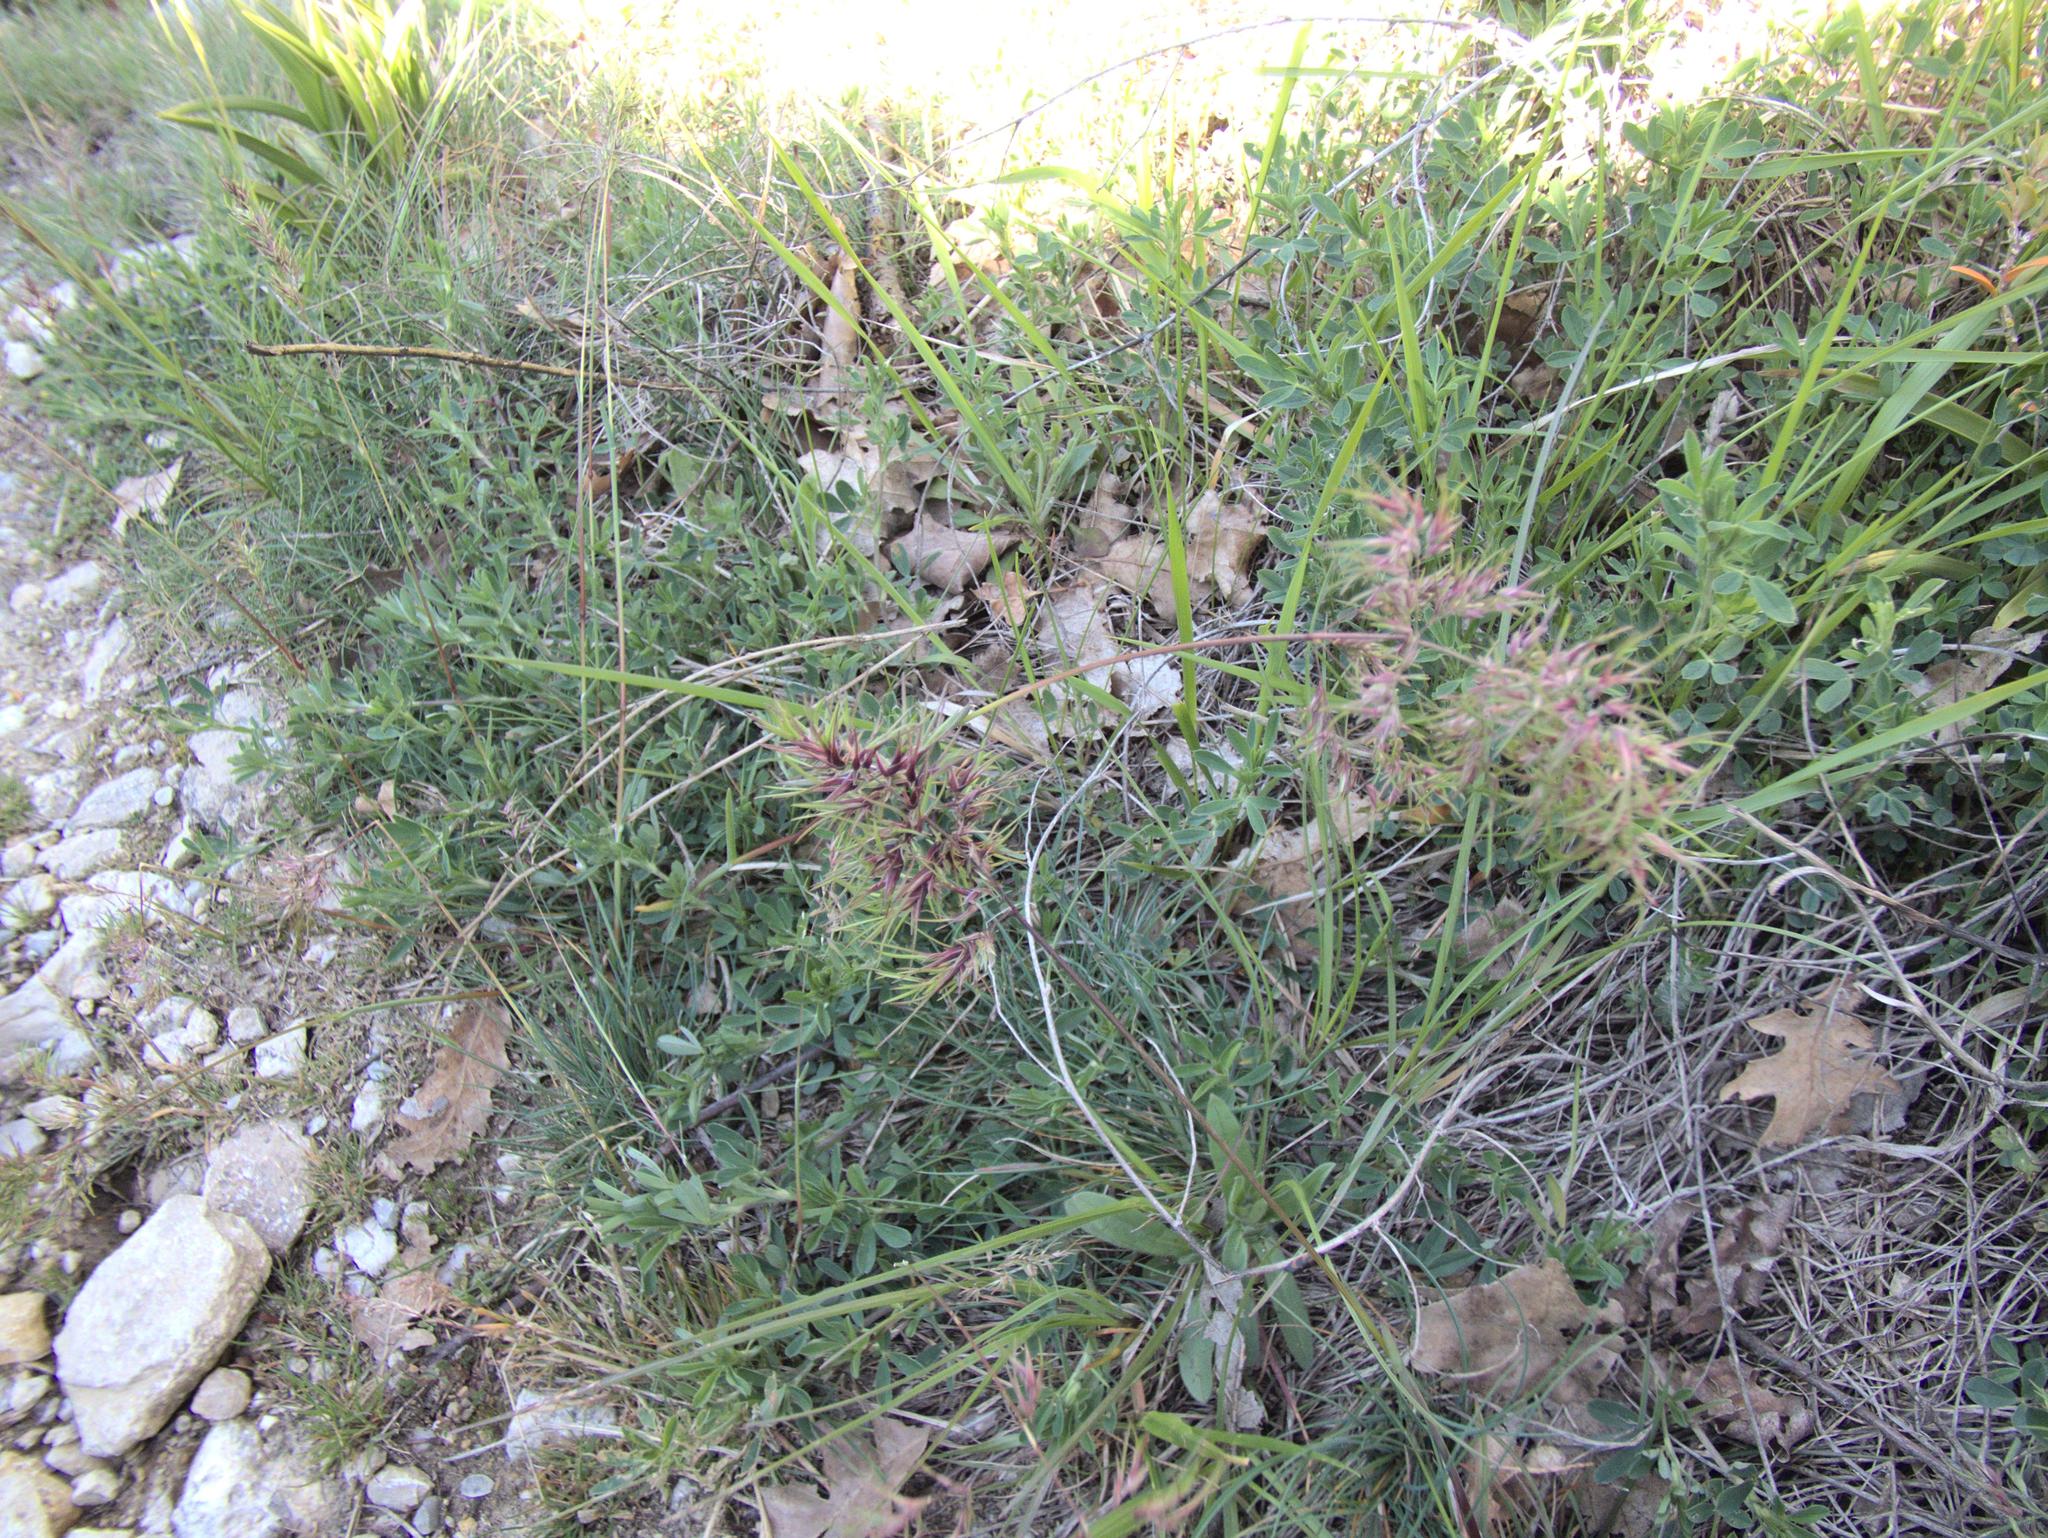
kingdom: Plantae
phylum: Tracheophyta
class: Liliopsida
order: Poales
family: Poaceae
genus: Poa
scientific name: Poa bulbosa
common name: Bulbous bluegrass
